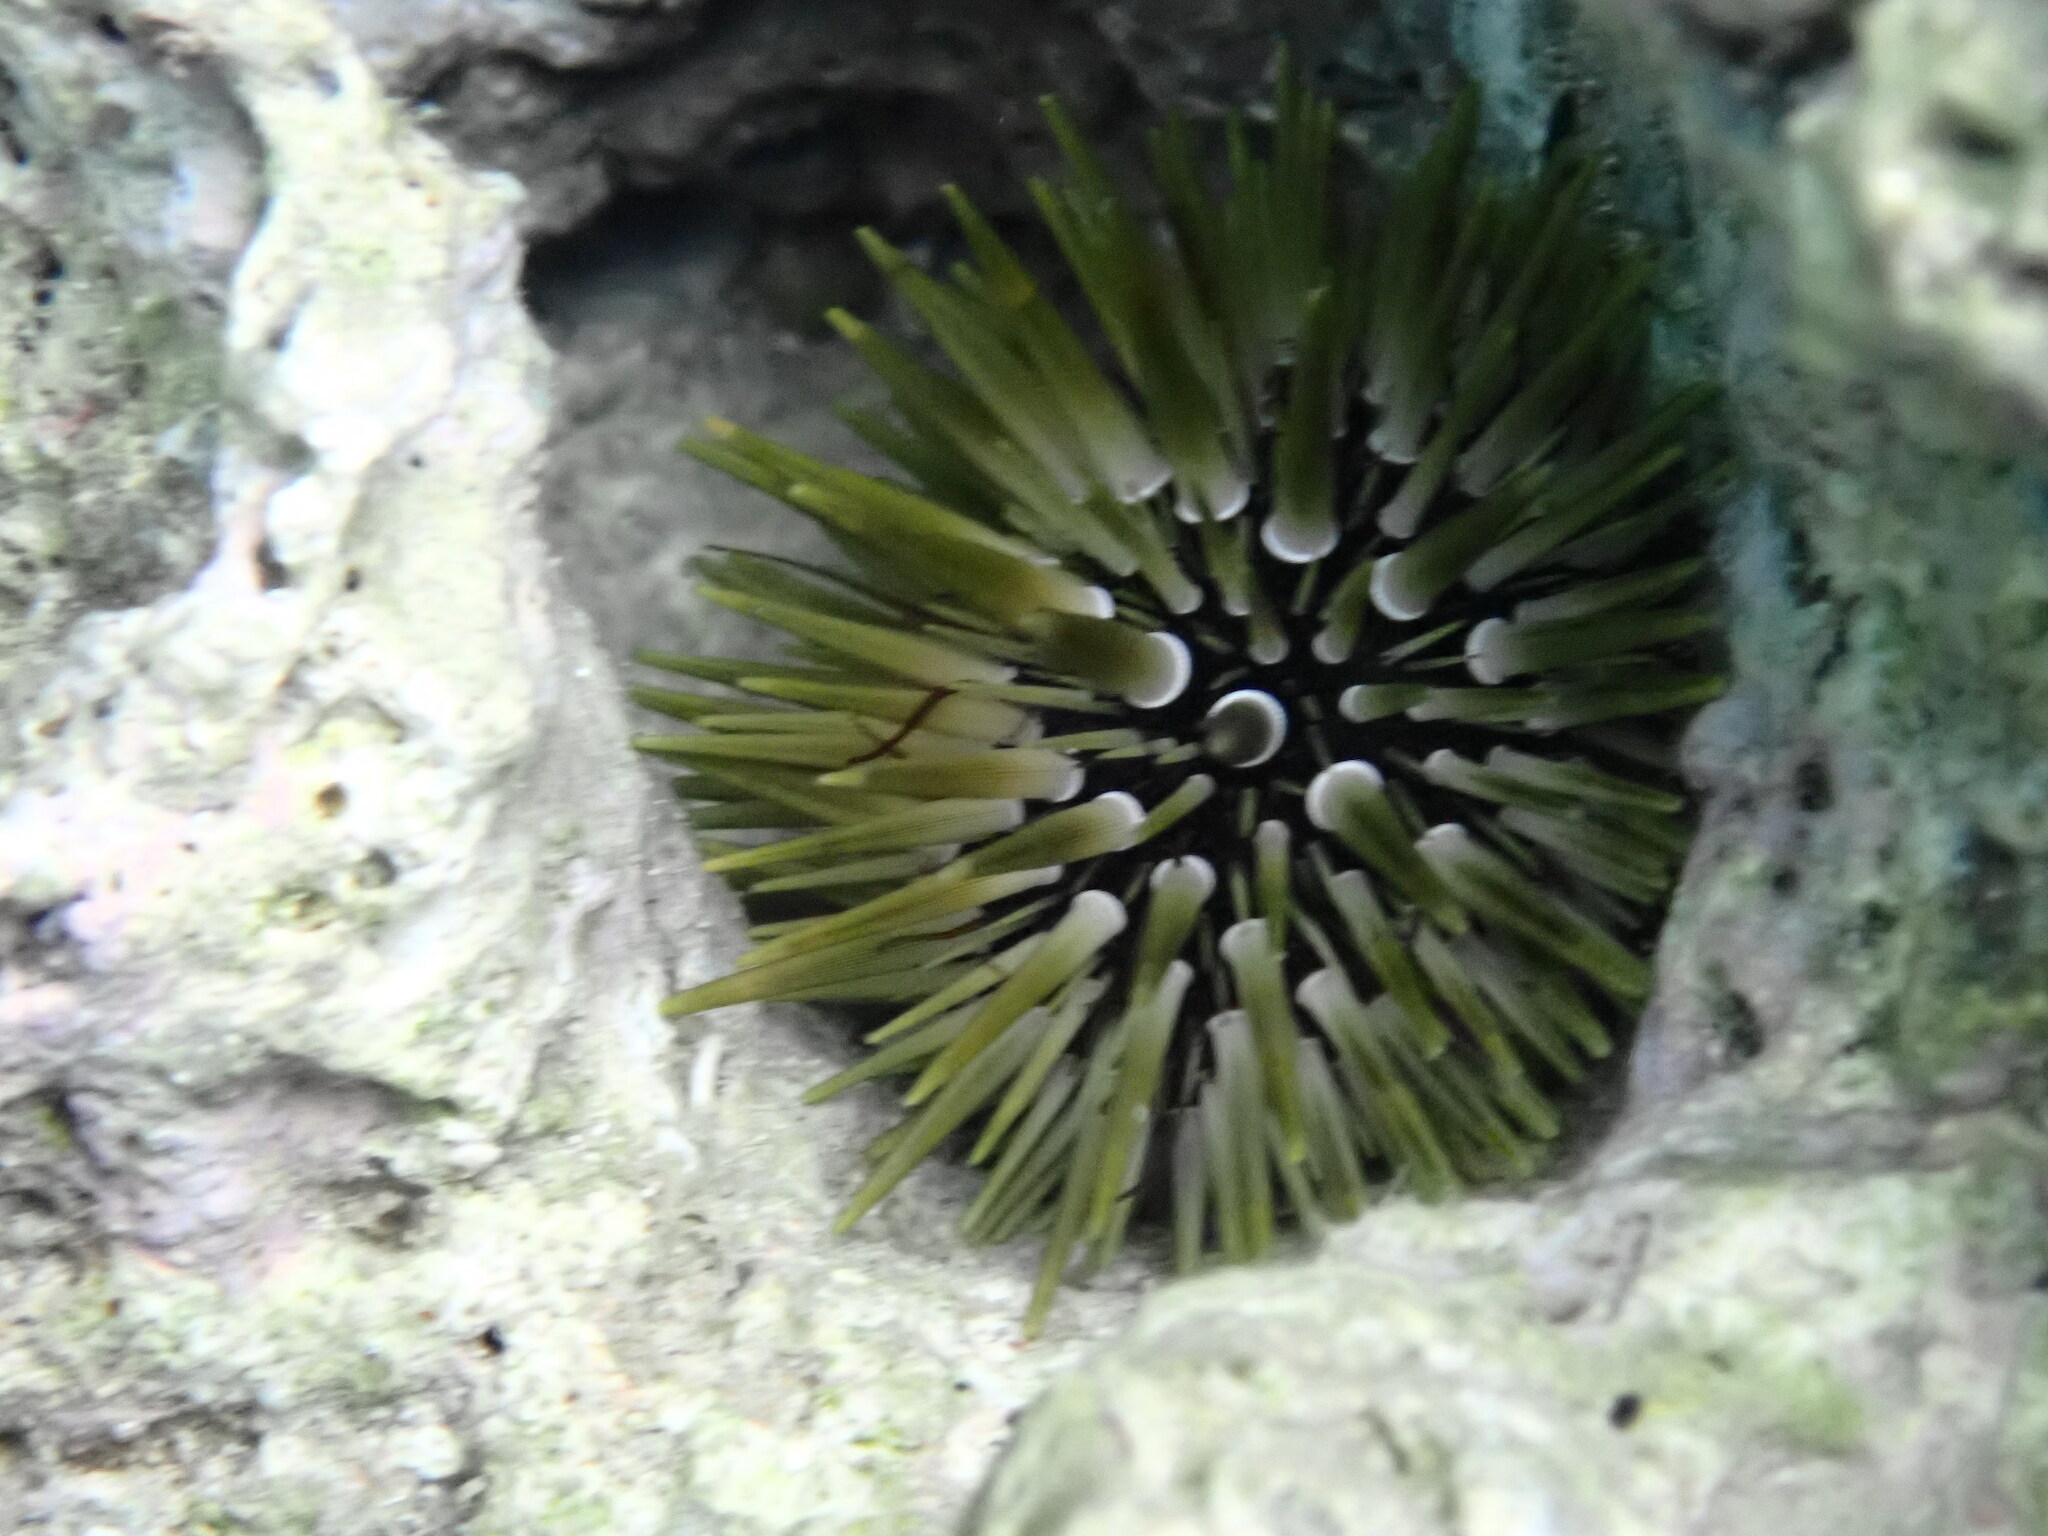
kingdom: Animalia
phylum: Echinodermata
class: Echinoidea
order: Camarodonta
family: Echinometridae
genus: Echinometra
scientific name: Echinometra mathaei
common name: Rock-boring urchin
